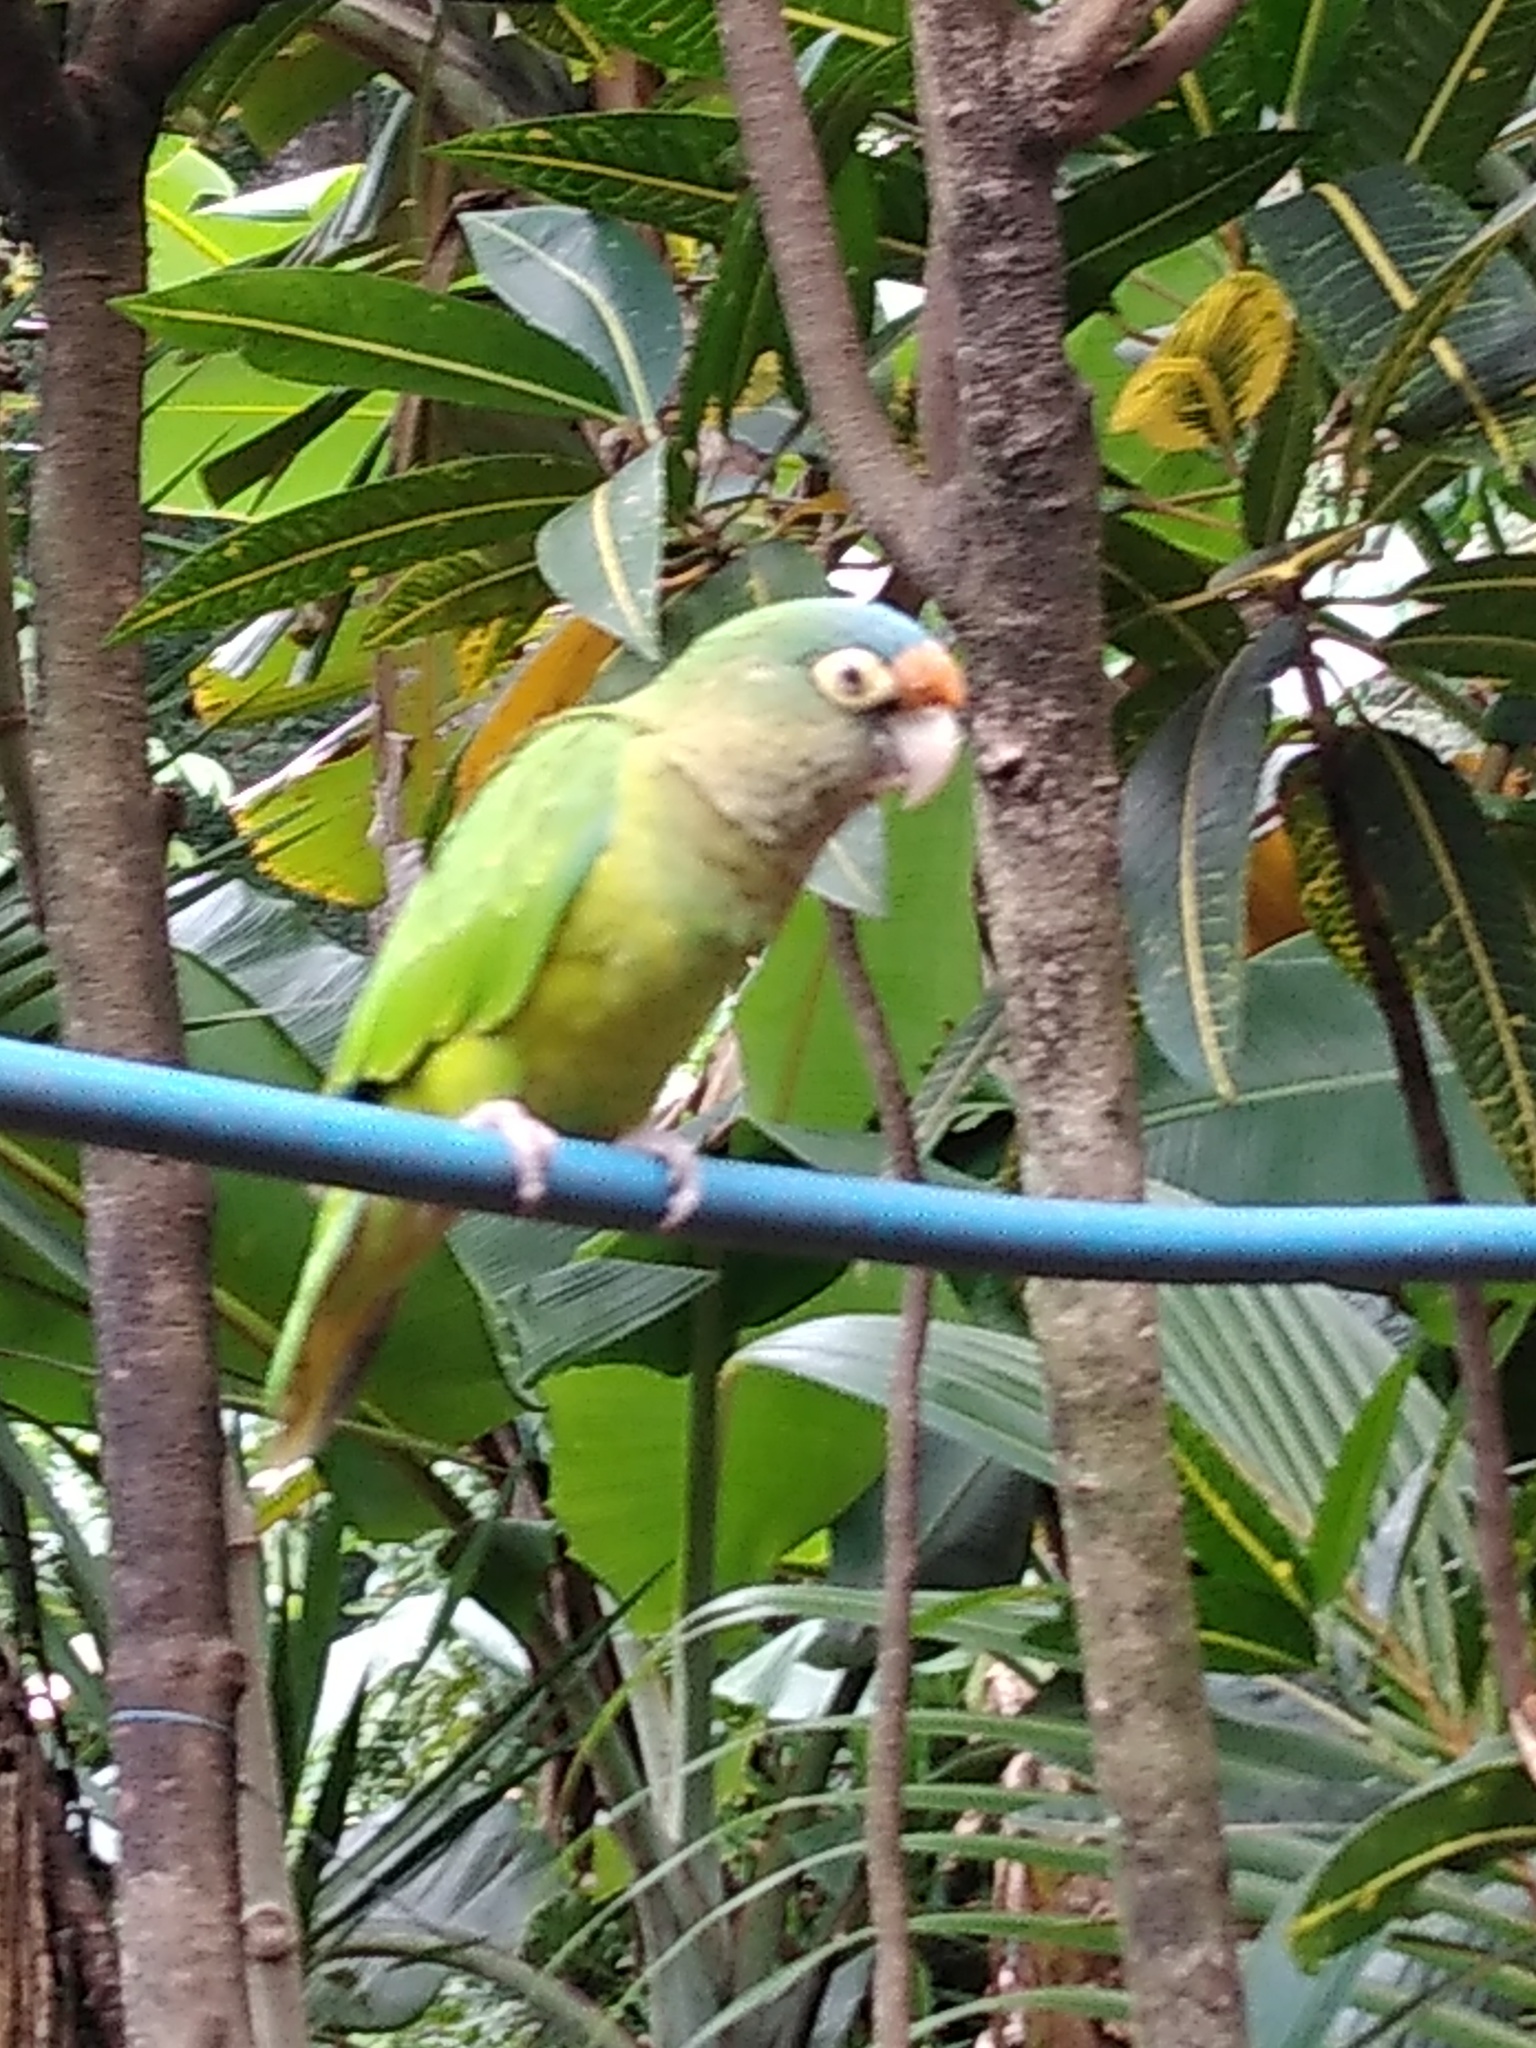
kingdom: Animalia
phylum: Chordata
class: Aves
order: Psittaciformes
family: Psittacidae
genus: Aratinga
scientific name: Aratinga canicularis
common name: Orange-fronted parakeet
